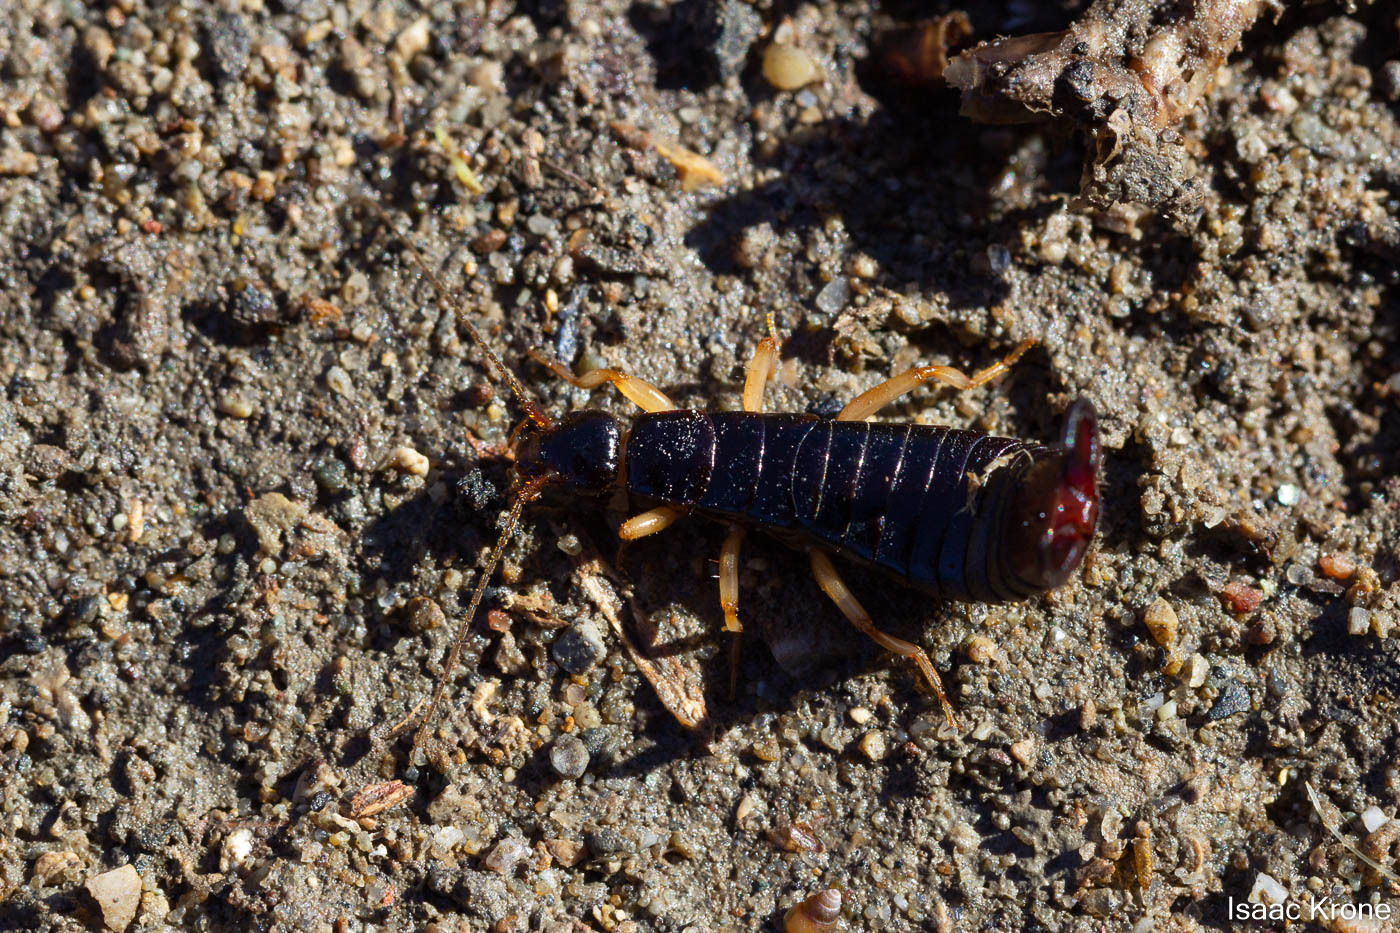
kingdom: Animalia
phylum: Arthropoda
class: Insecta
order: Dermaptera
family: Anisolabididae
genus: Anisolabis
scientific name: Anisolabis maritima
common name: Maritime earwig
